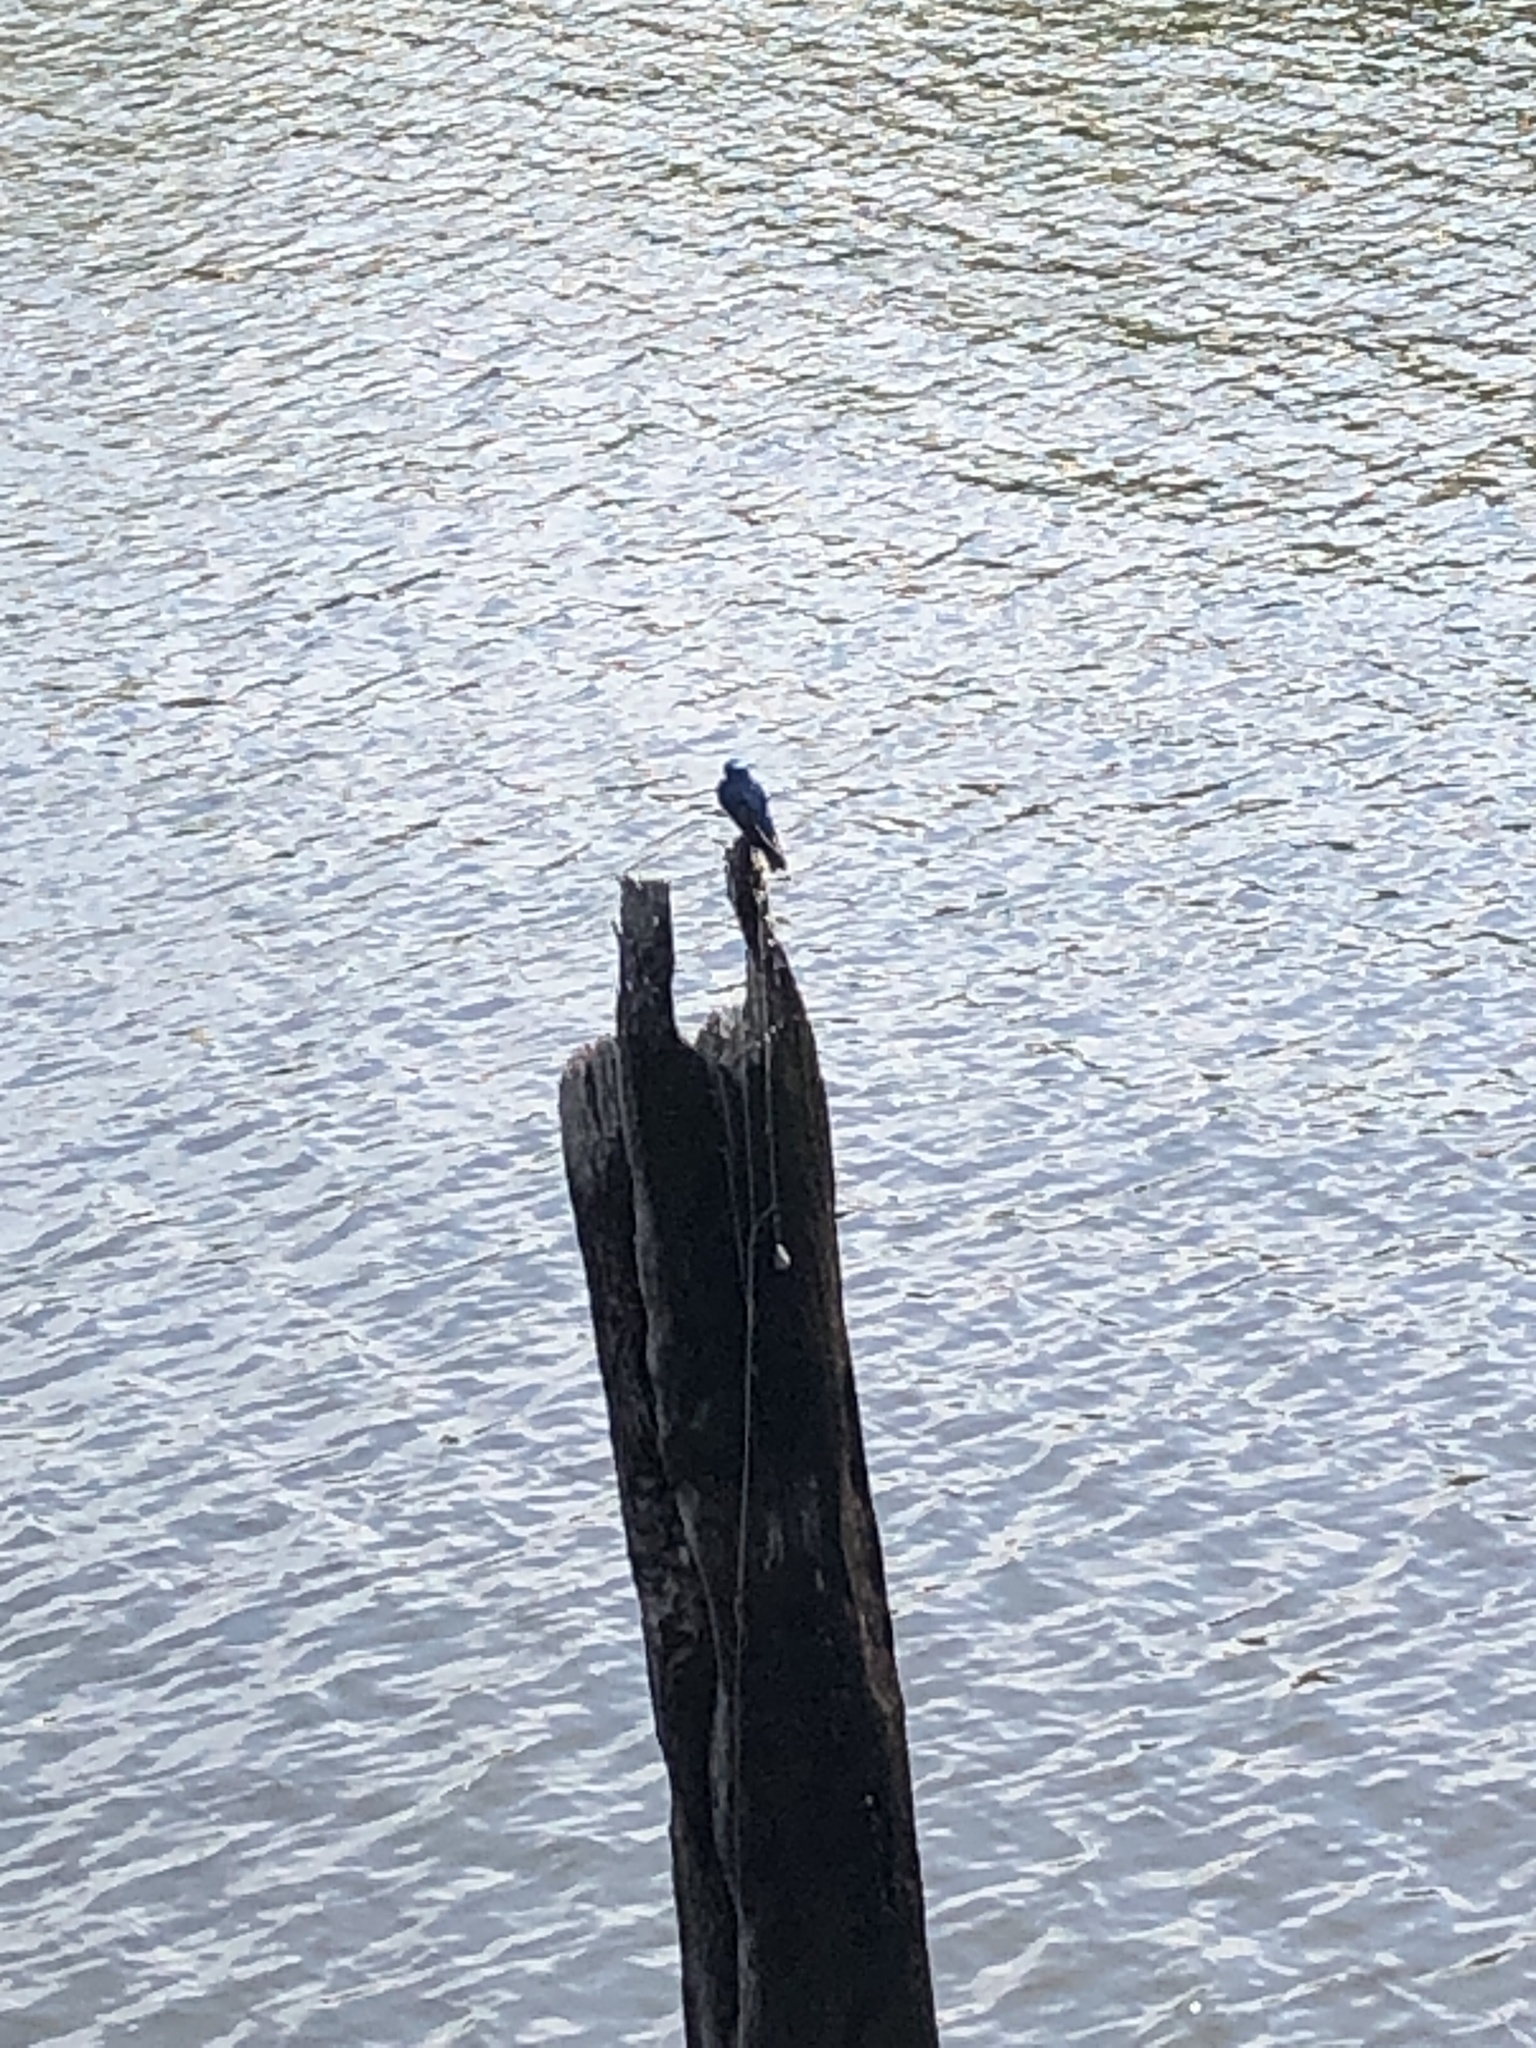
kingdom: Animalia
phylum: Chordata
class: Aves
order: Passeriformes
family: Hirundinidae
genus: Tachycineta
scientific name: Tachycineta bicolor
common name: Tree swallow
